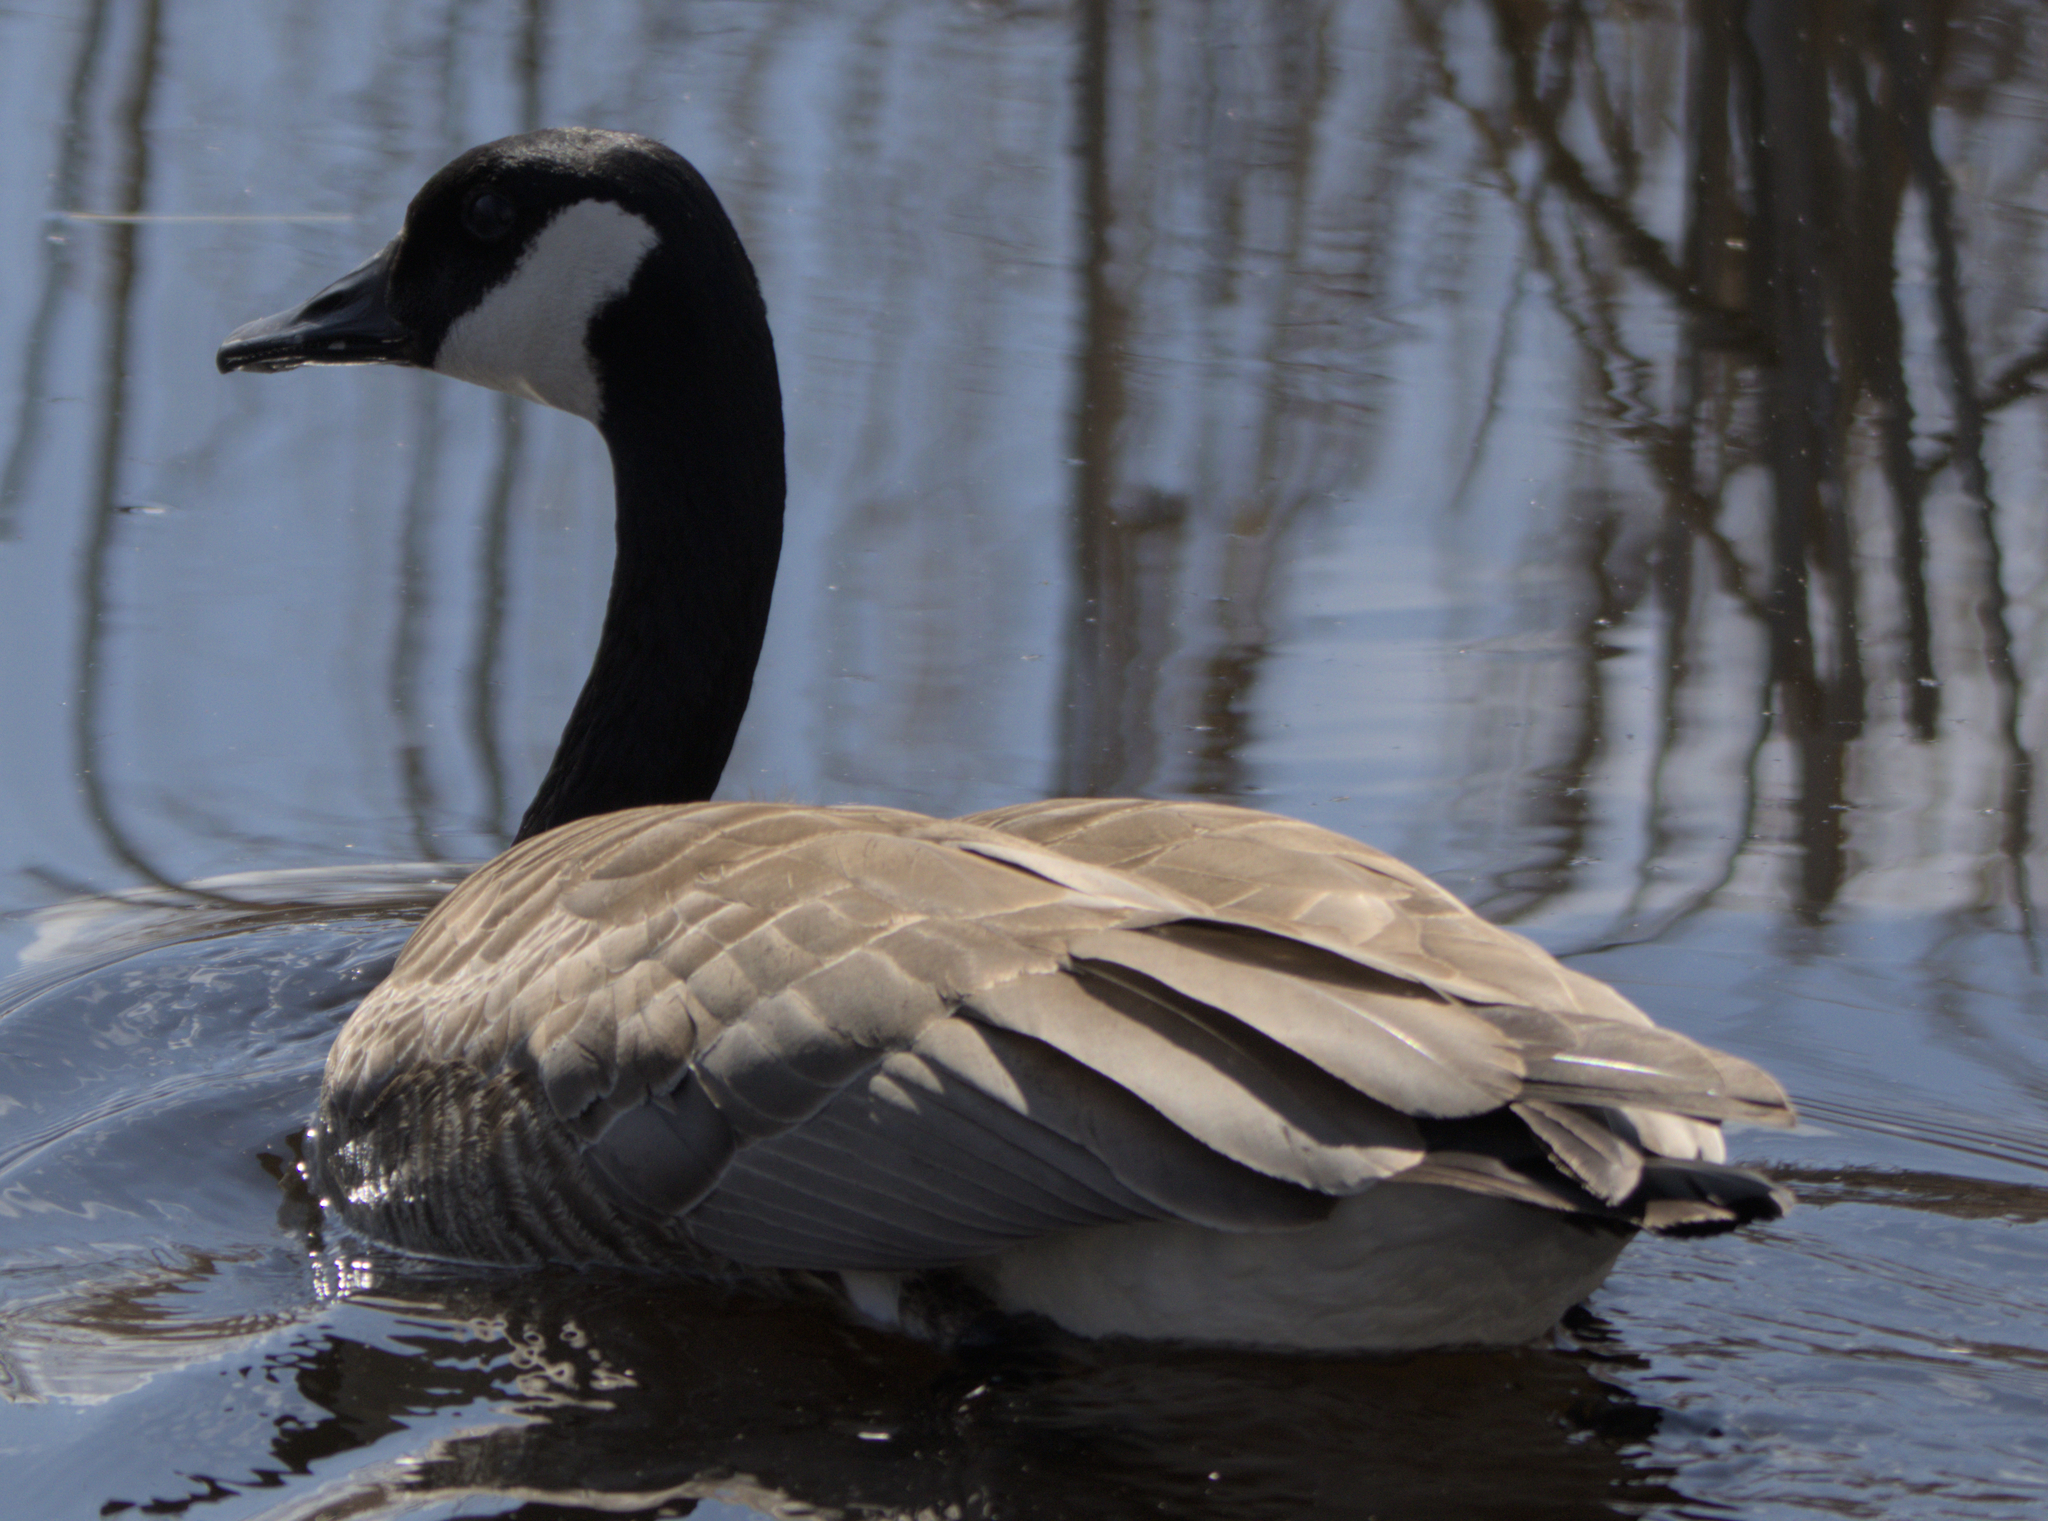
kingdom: Animalia
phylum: Chordata
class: Aves
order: Anseriformes
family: Anatidae
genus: Branta
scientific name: Branta canadensis
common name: Canada goose
